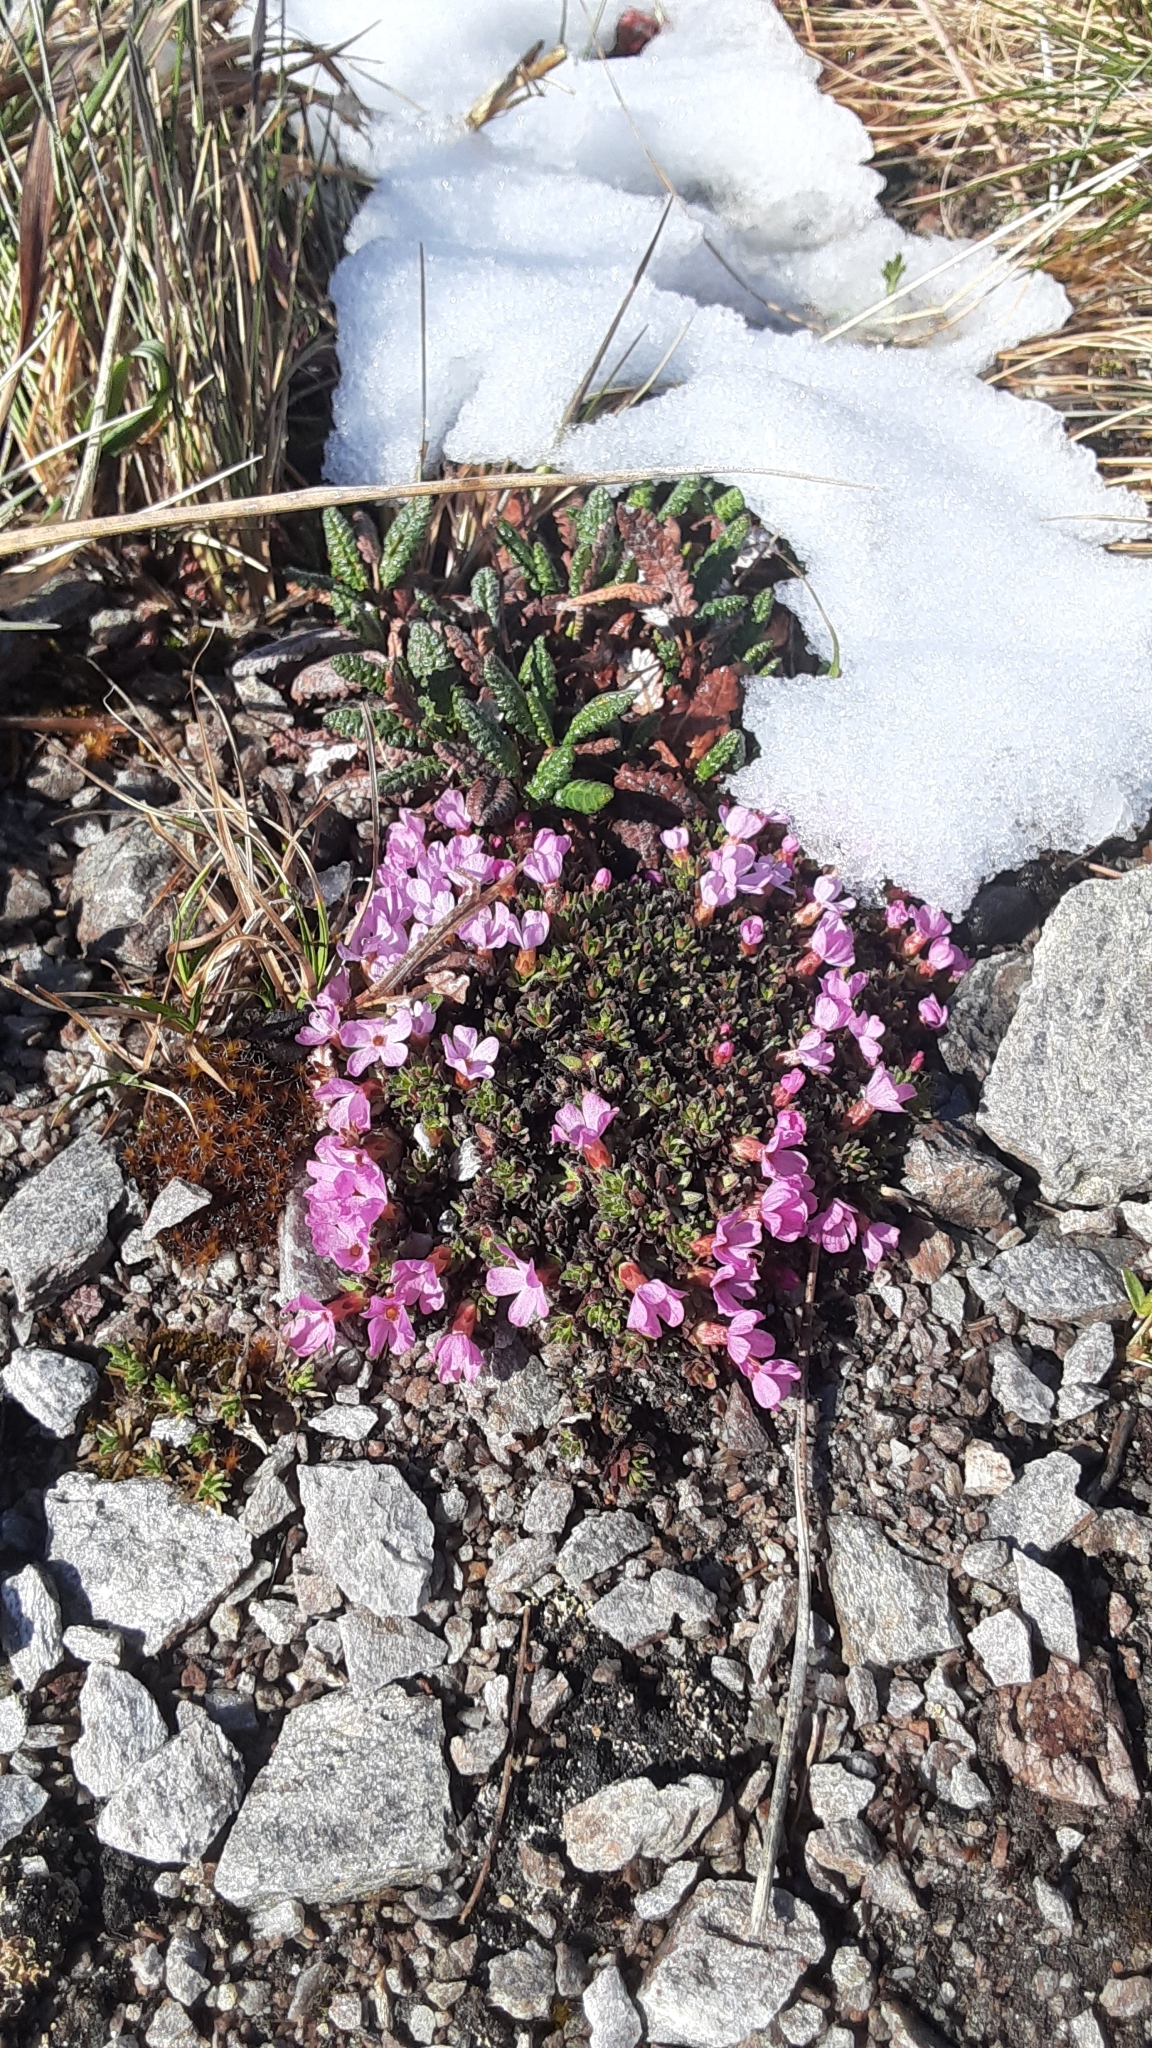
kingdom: Plantae
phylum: Tracheophyta
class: Magnoliopsida
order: Ericales
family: Primulaceae
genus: Androsace
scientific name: Androsace constancei
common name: Gorman's dwarf-primrose
